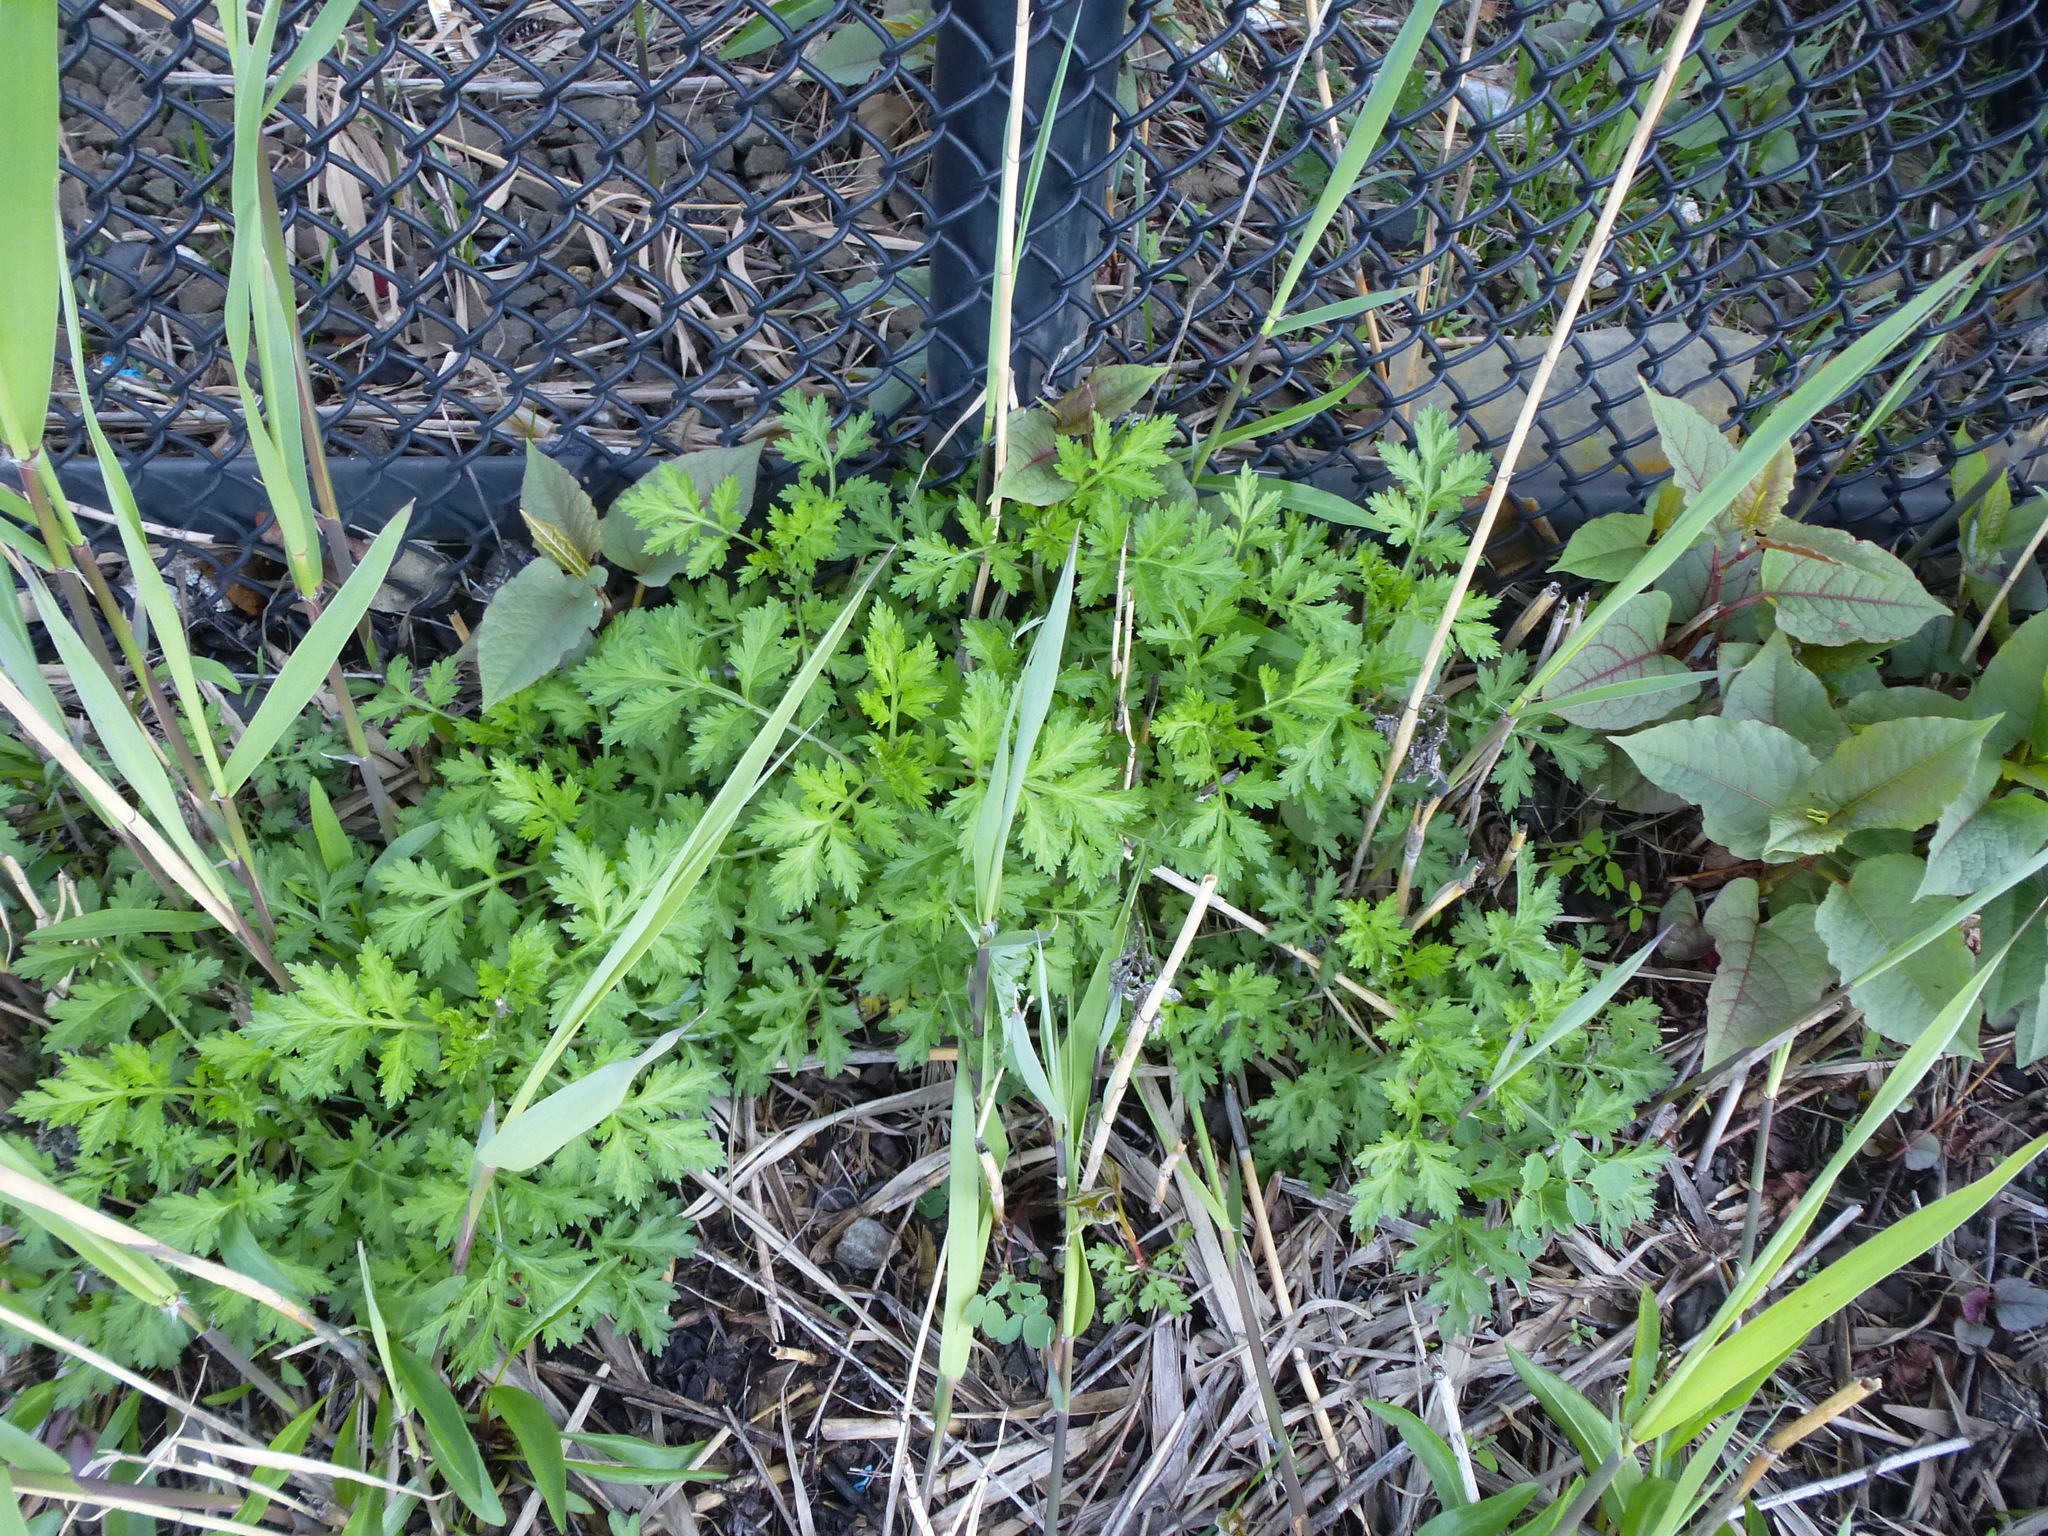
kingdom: Plantae
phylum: Tracheophyta
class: Magnoliopsida
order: Asterales
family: Asteraceae
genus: Artemisia
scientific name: Artemisia vulgaris
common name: Mugwort
